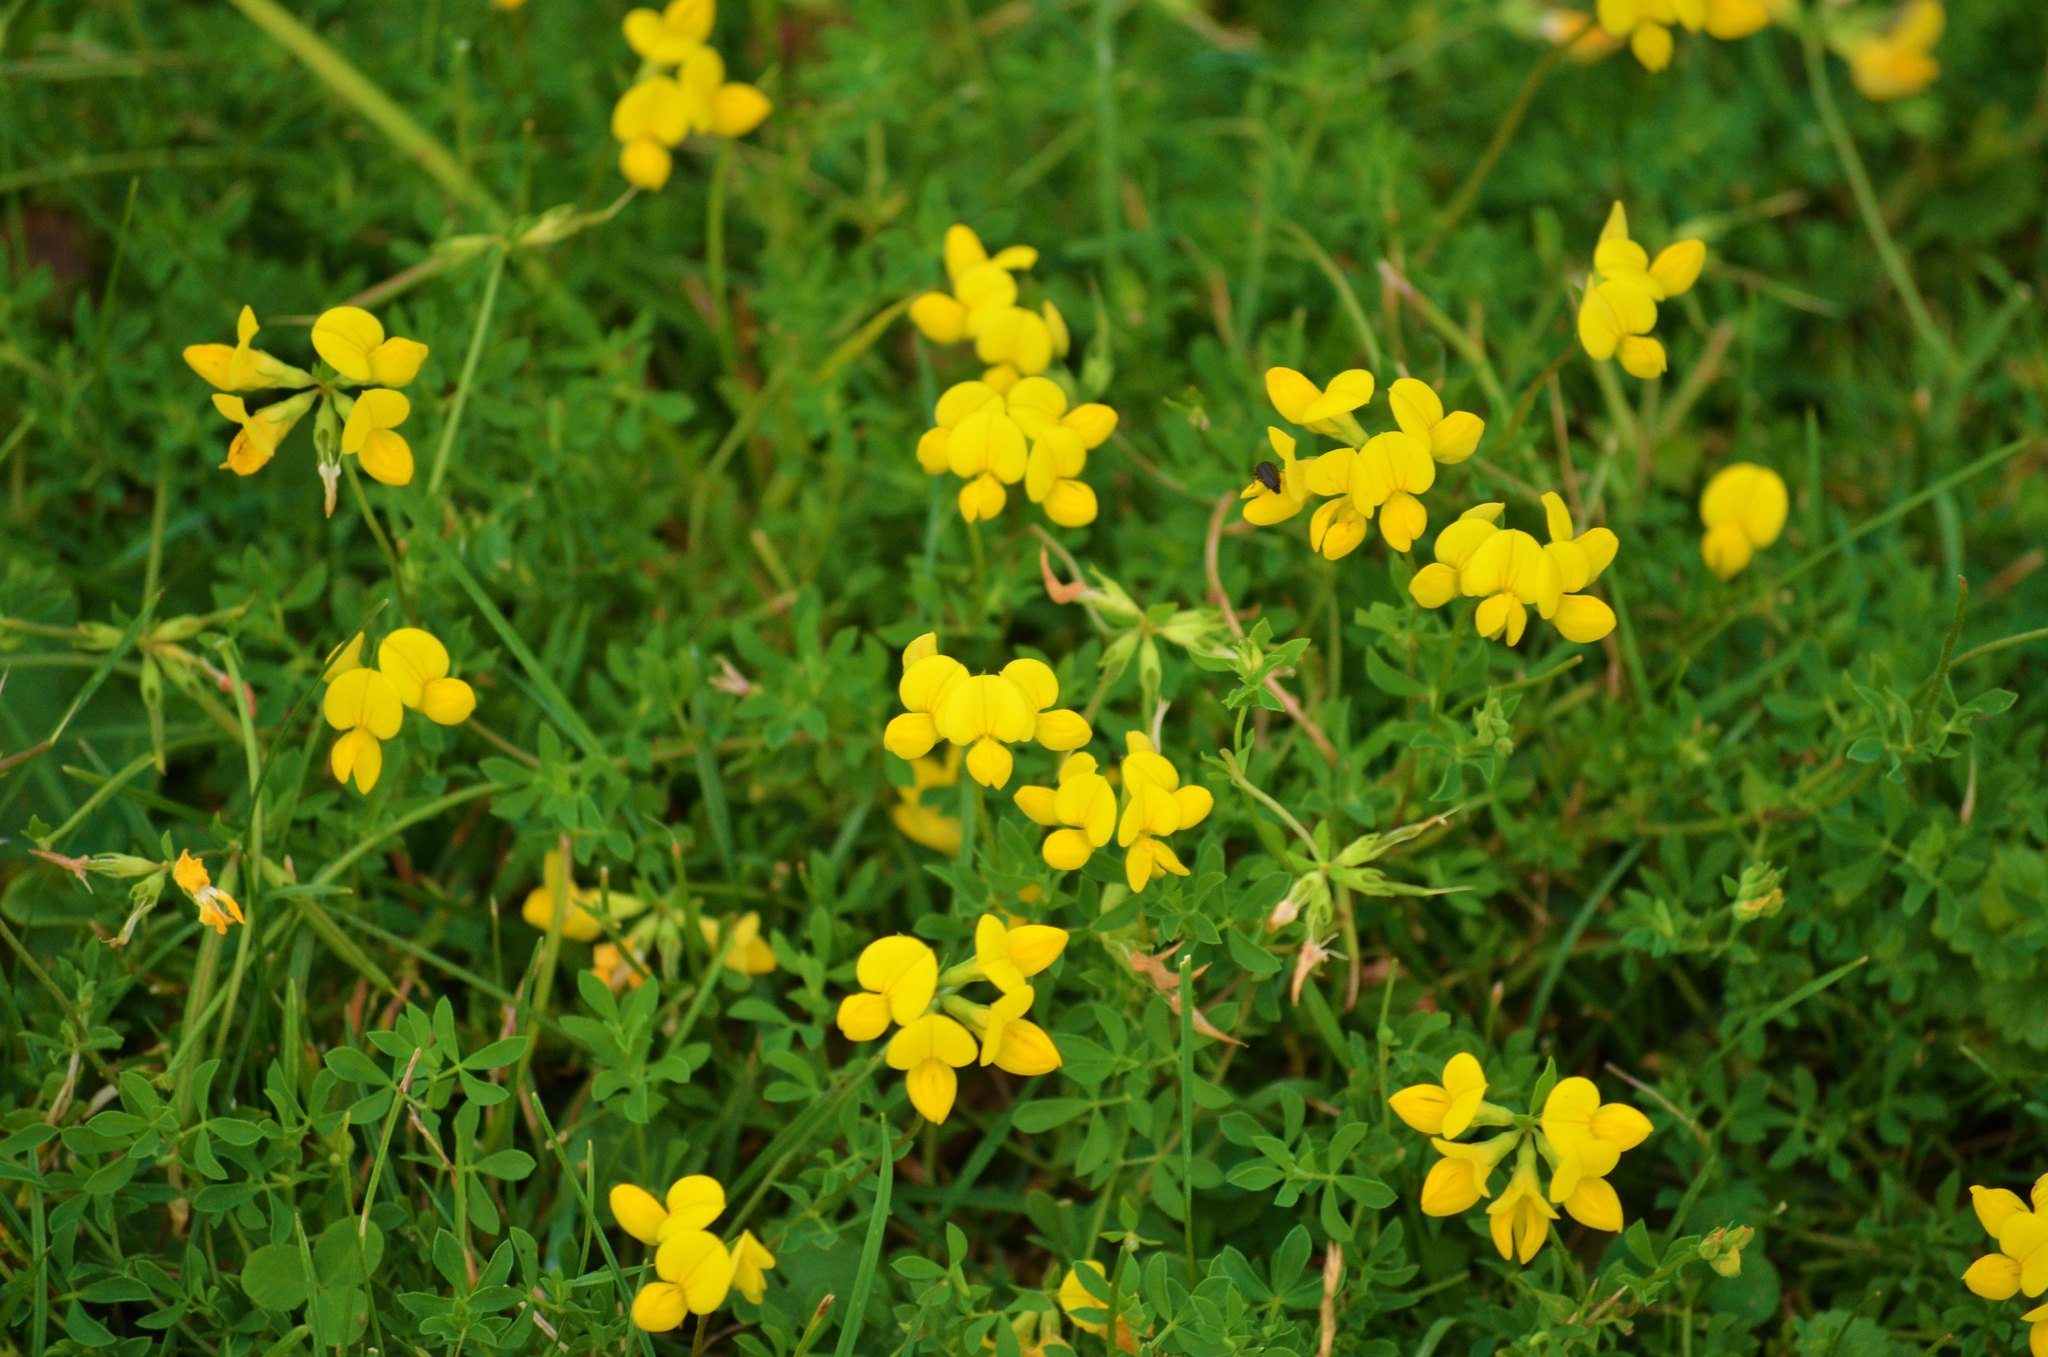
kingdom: Plantae
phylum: Tracheophyta
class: Magnoliopsida
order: Fabales
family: Fabaceae
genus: Lotus
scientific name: Lotus corniculatus
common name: Common bird's-foot-trefoil
